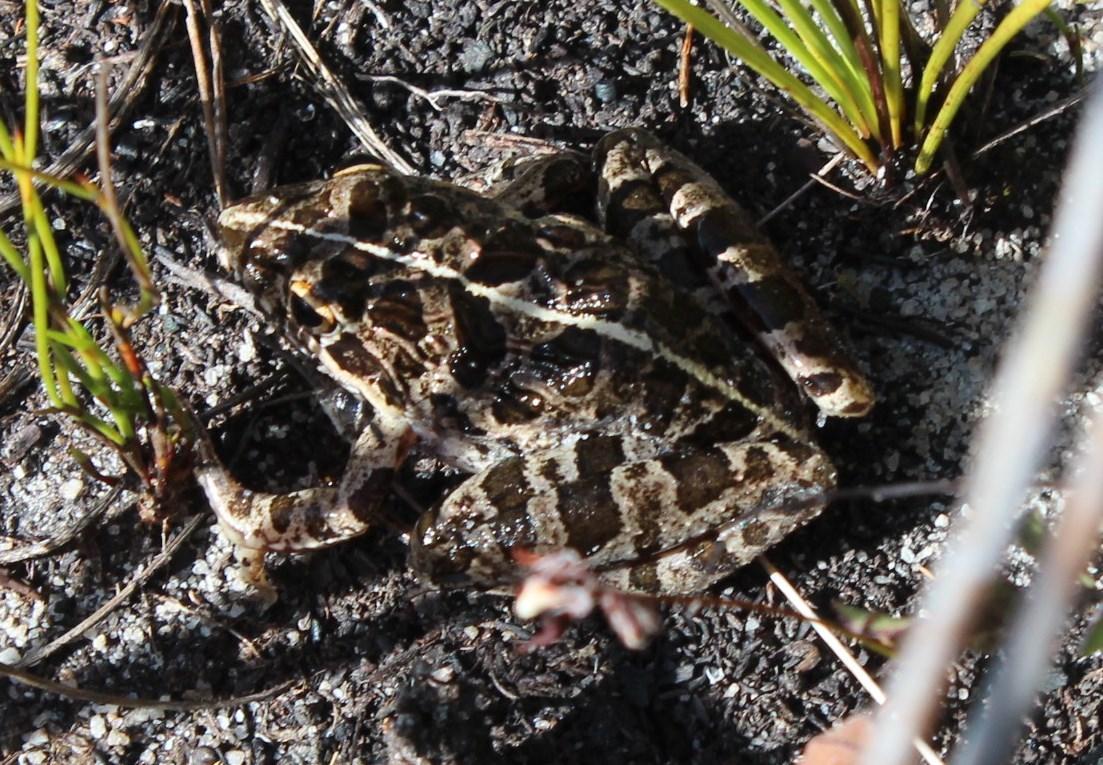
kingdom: Animalia
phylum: Chordata
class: Amphibia
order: Anura
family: Pyxicephalidae
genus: Strongylopus
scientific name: Strongylopus grayii
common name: Gray's stream frog
